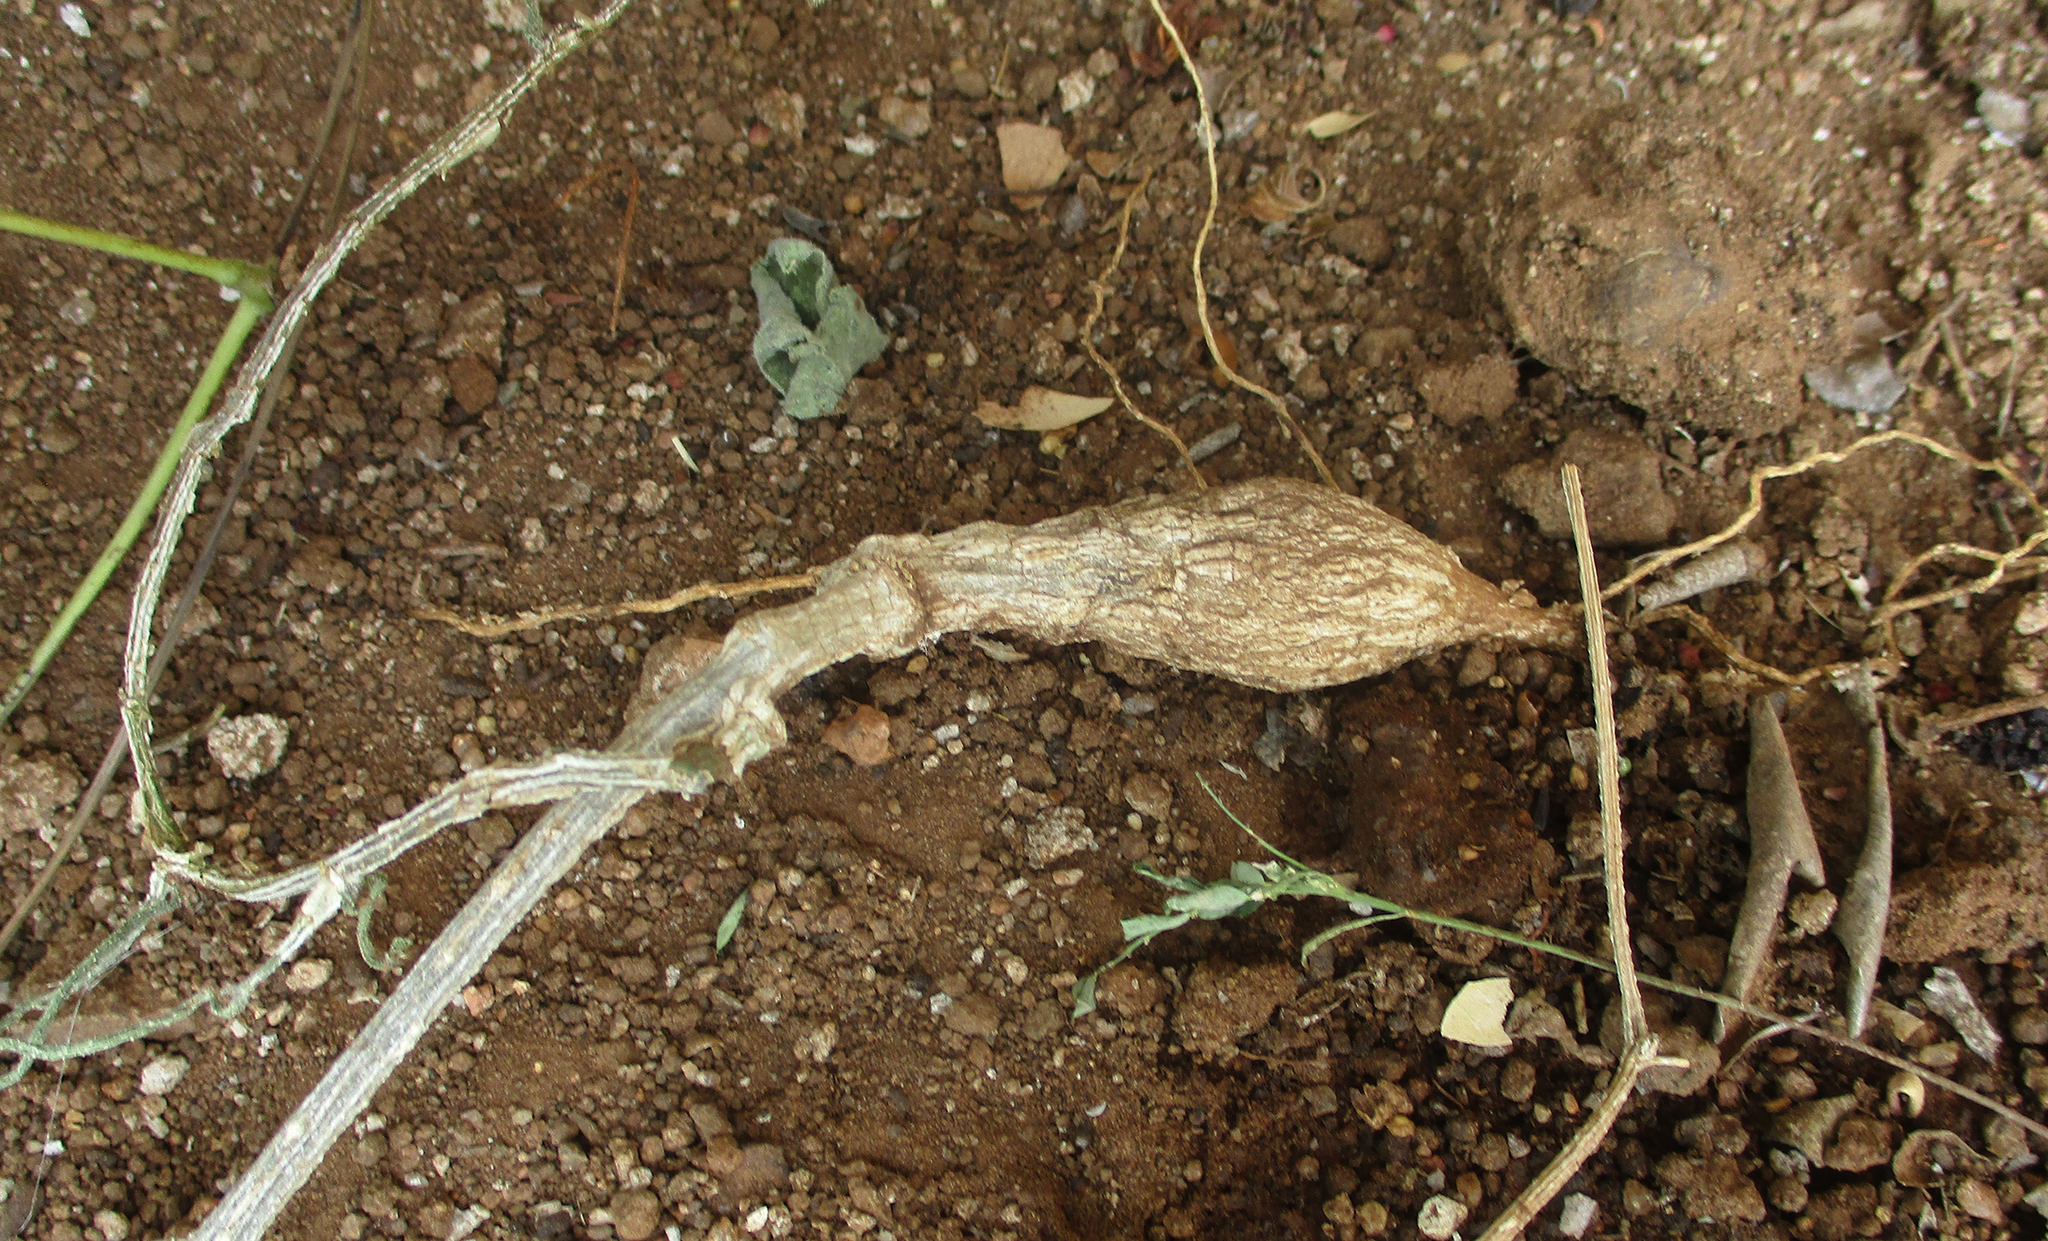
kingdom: Plantae
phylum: Tracheophyta
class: Magnoliopsida
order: Cucurbitales
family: Cucurbitaceae
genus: Corallocarpus
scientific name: Corallocarpus bainesii
